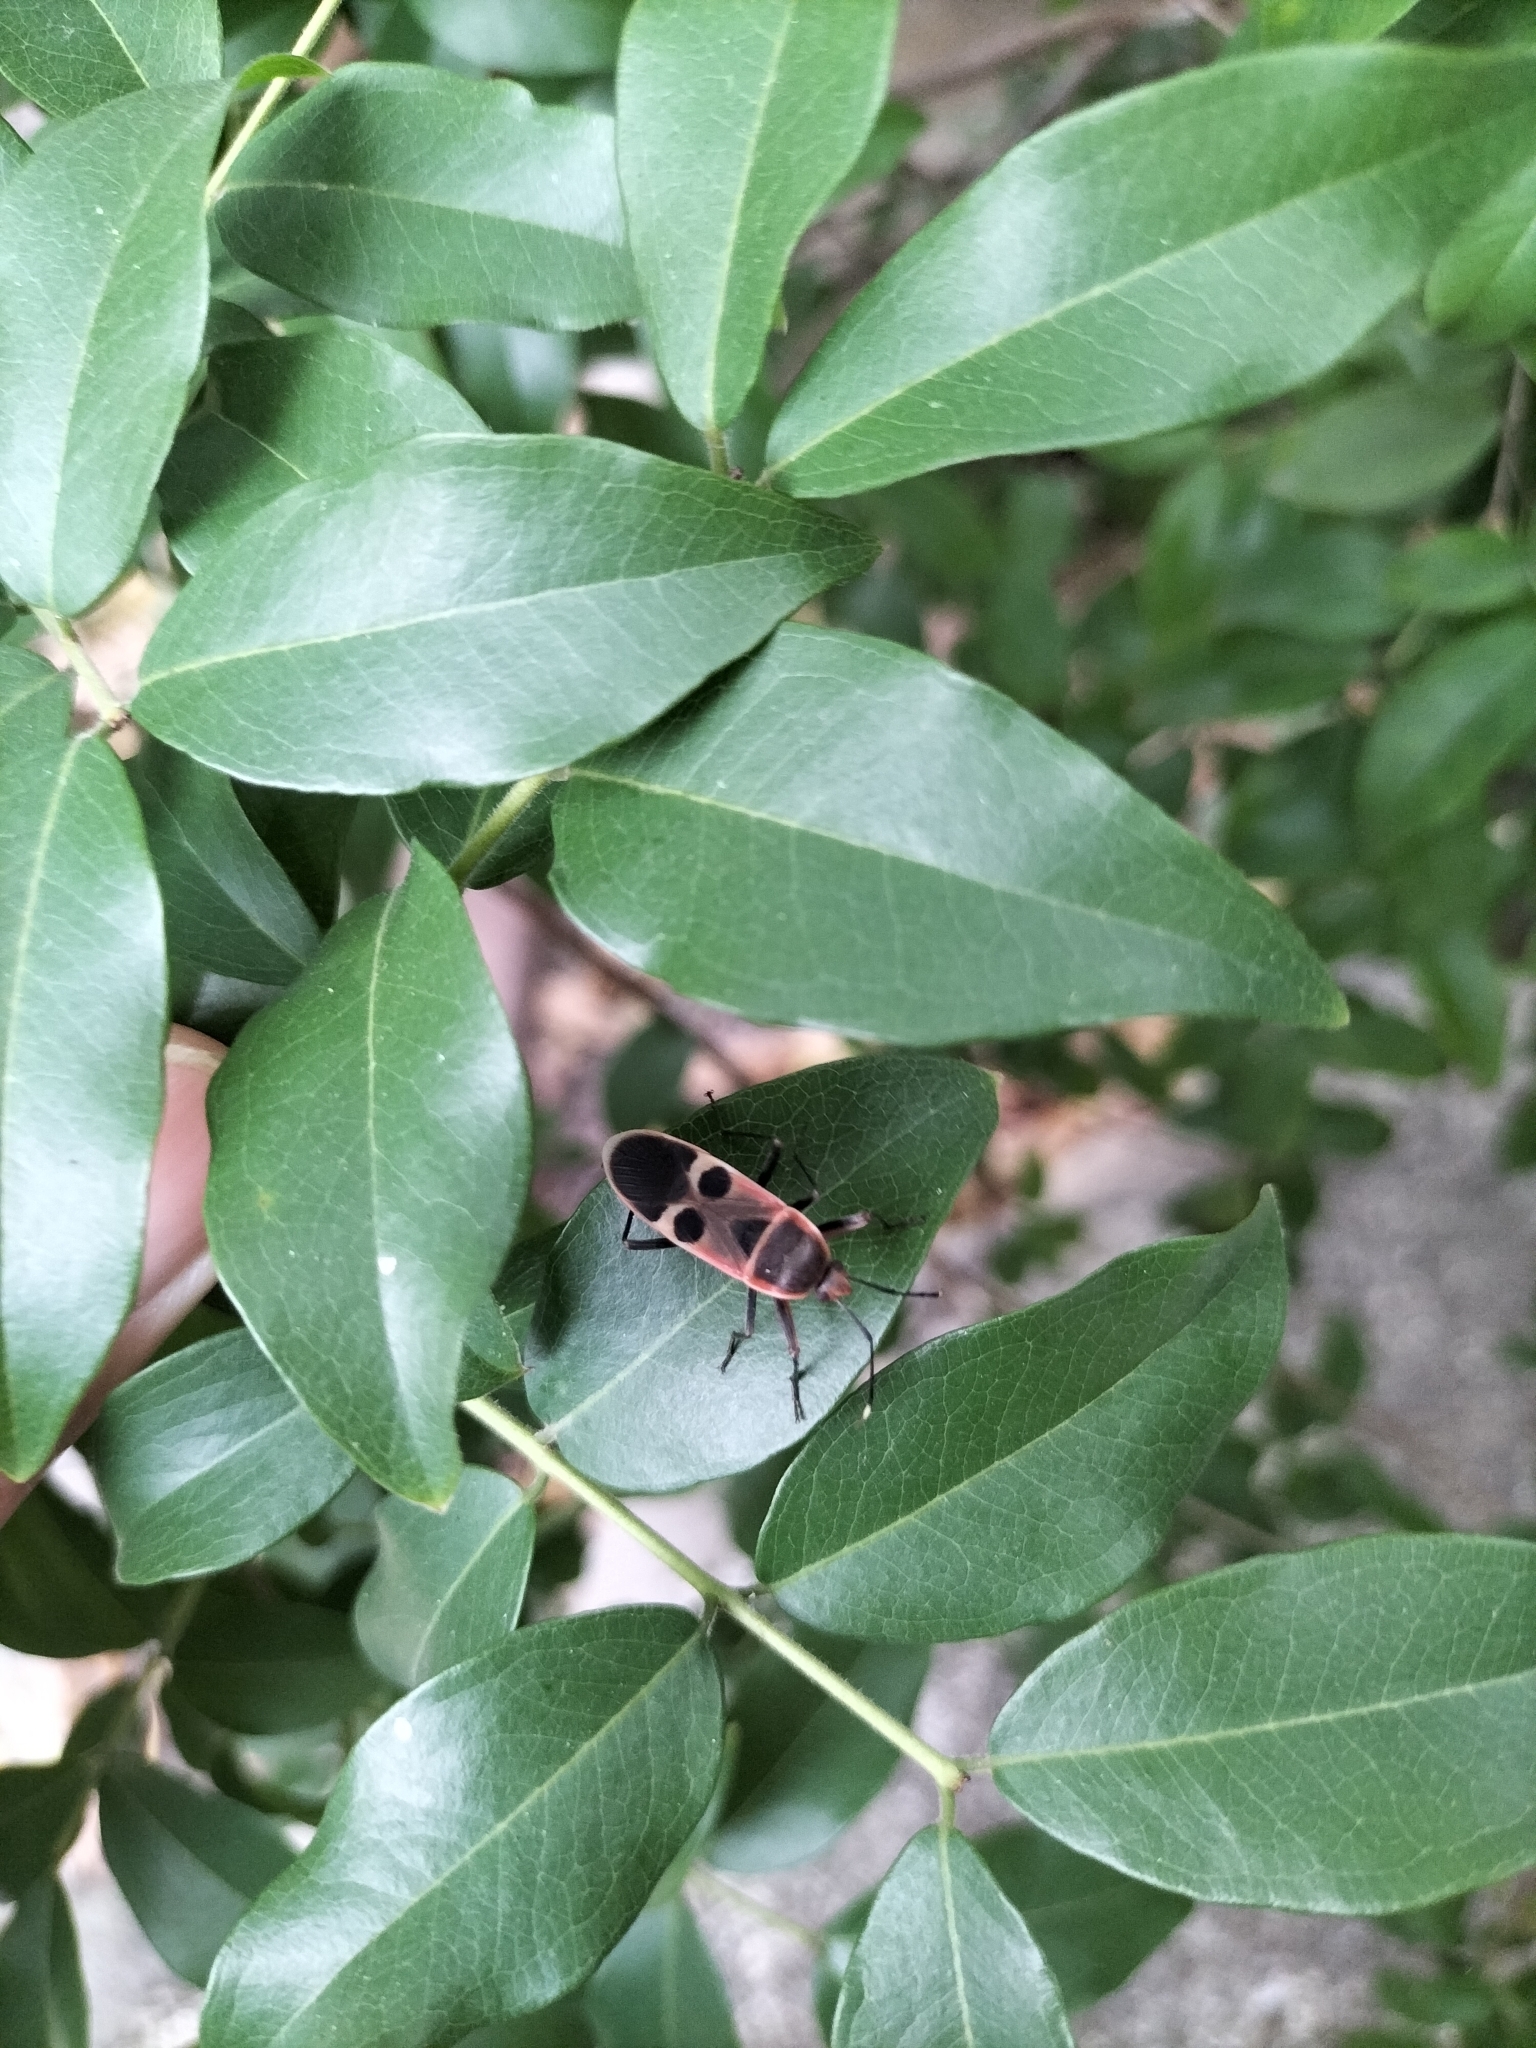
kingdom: Animalia
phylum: Arthropoda
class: Insecta
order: Hemiptera
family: Largidae
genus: Physopelta
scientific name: Physopelta gutta
